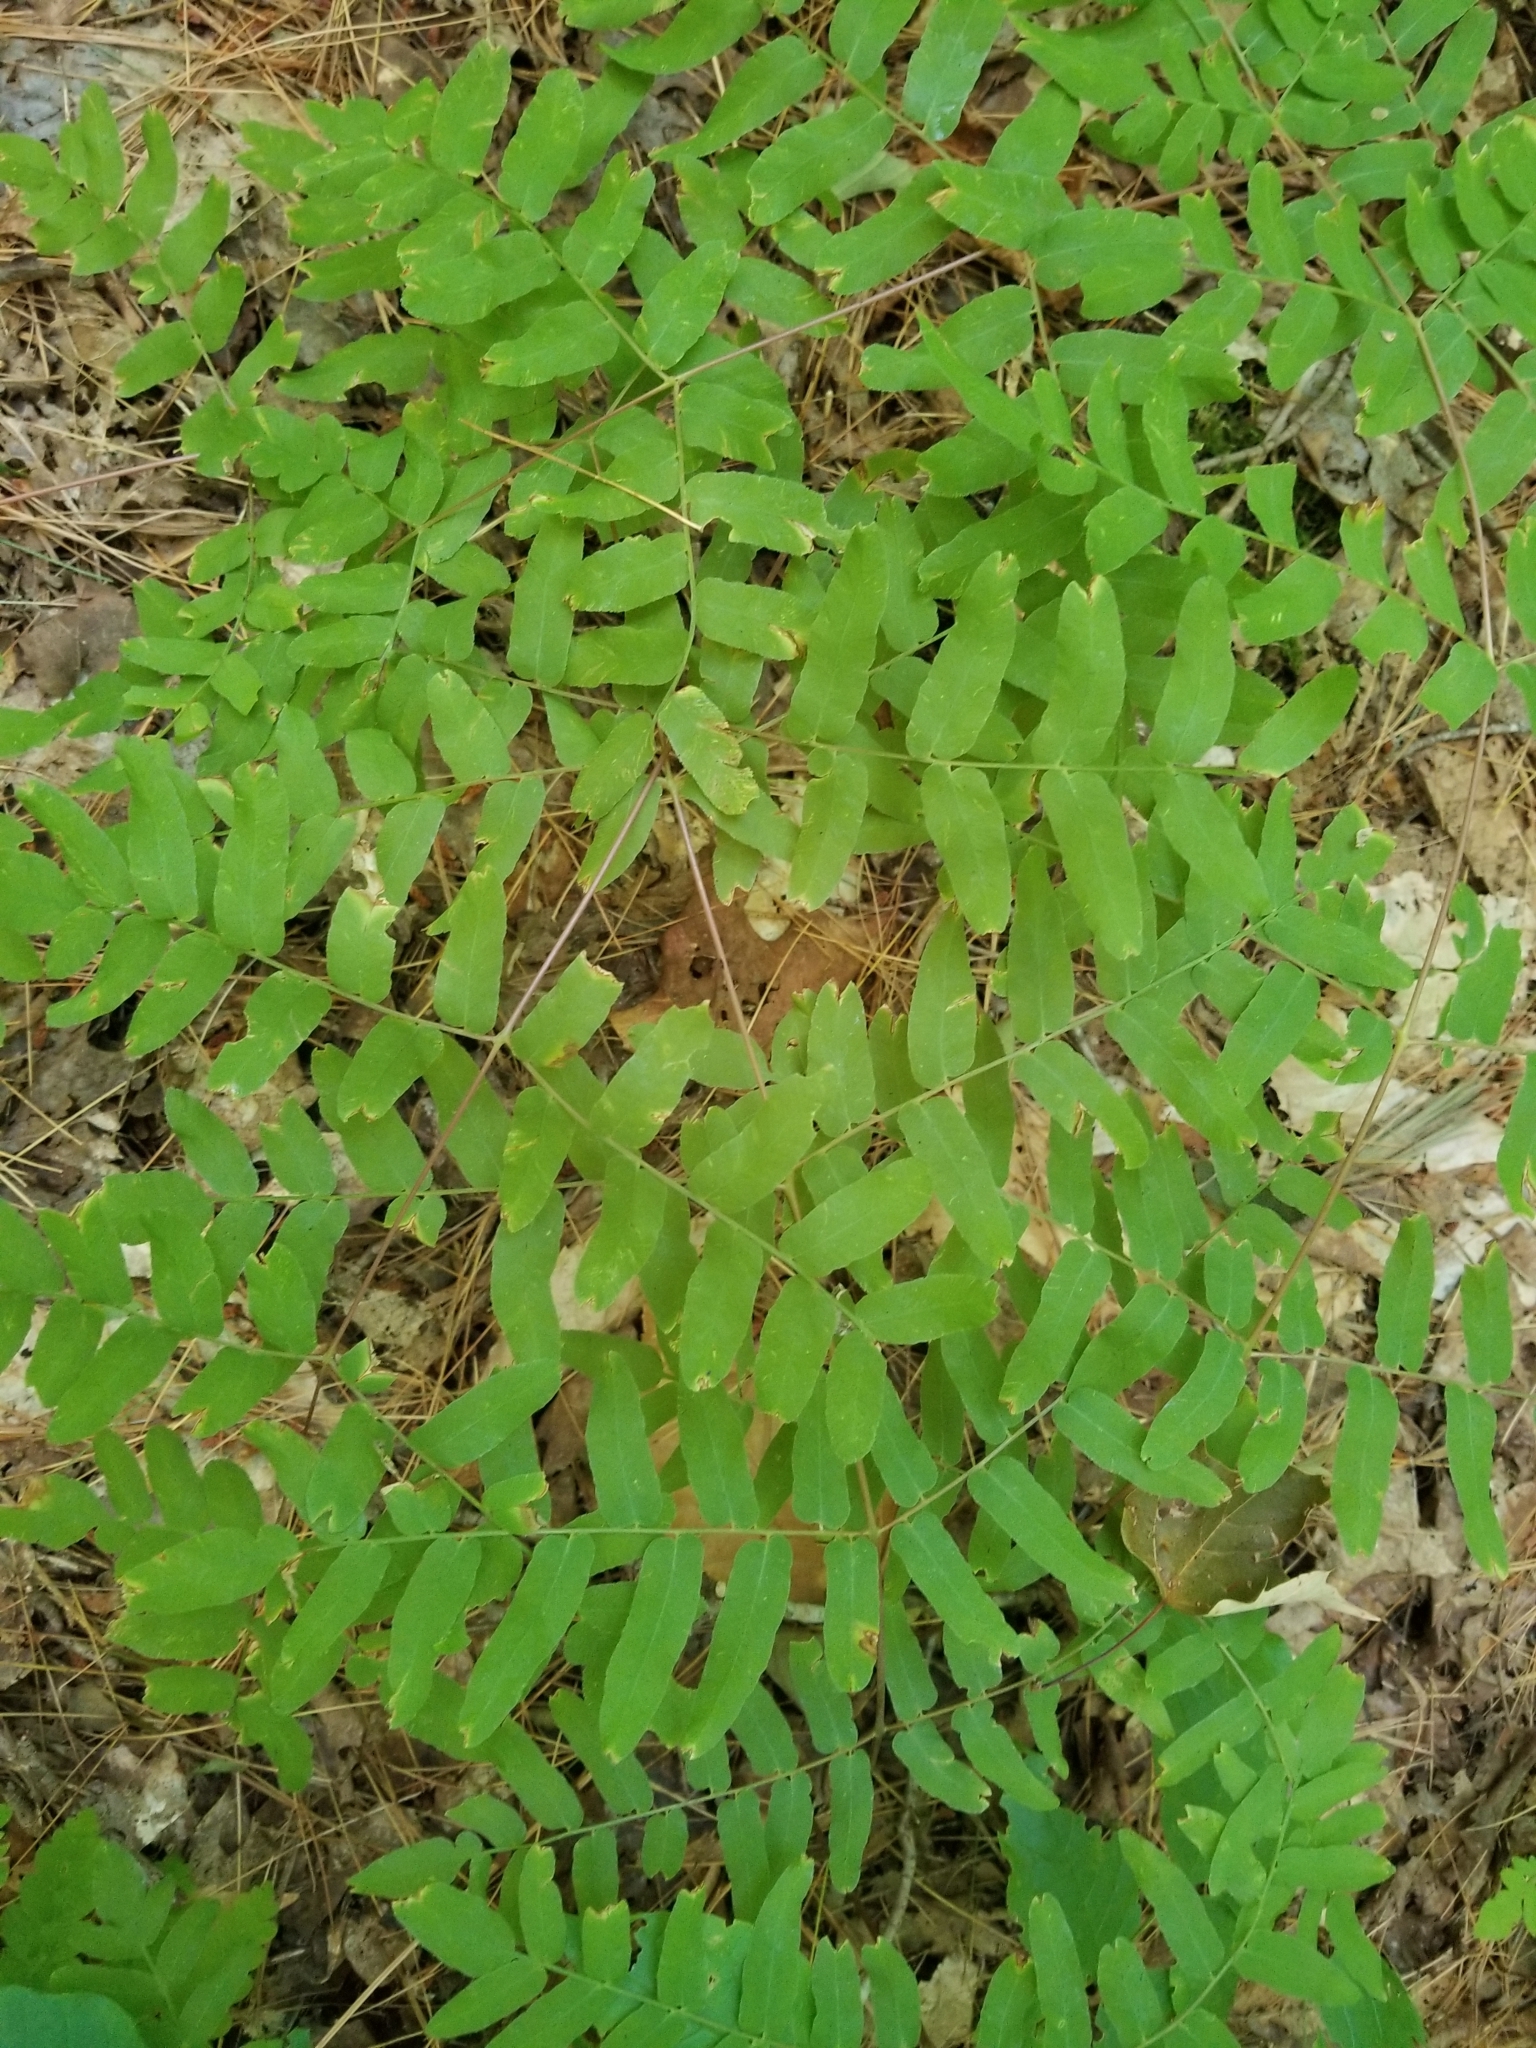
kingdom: Plantae
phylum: Tracheophyta
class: Polypodiopsida
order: Osmundales
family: Osmundaceae
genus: Osmunda
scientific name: Osmunda spectabilis
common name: American royal fern
